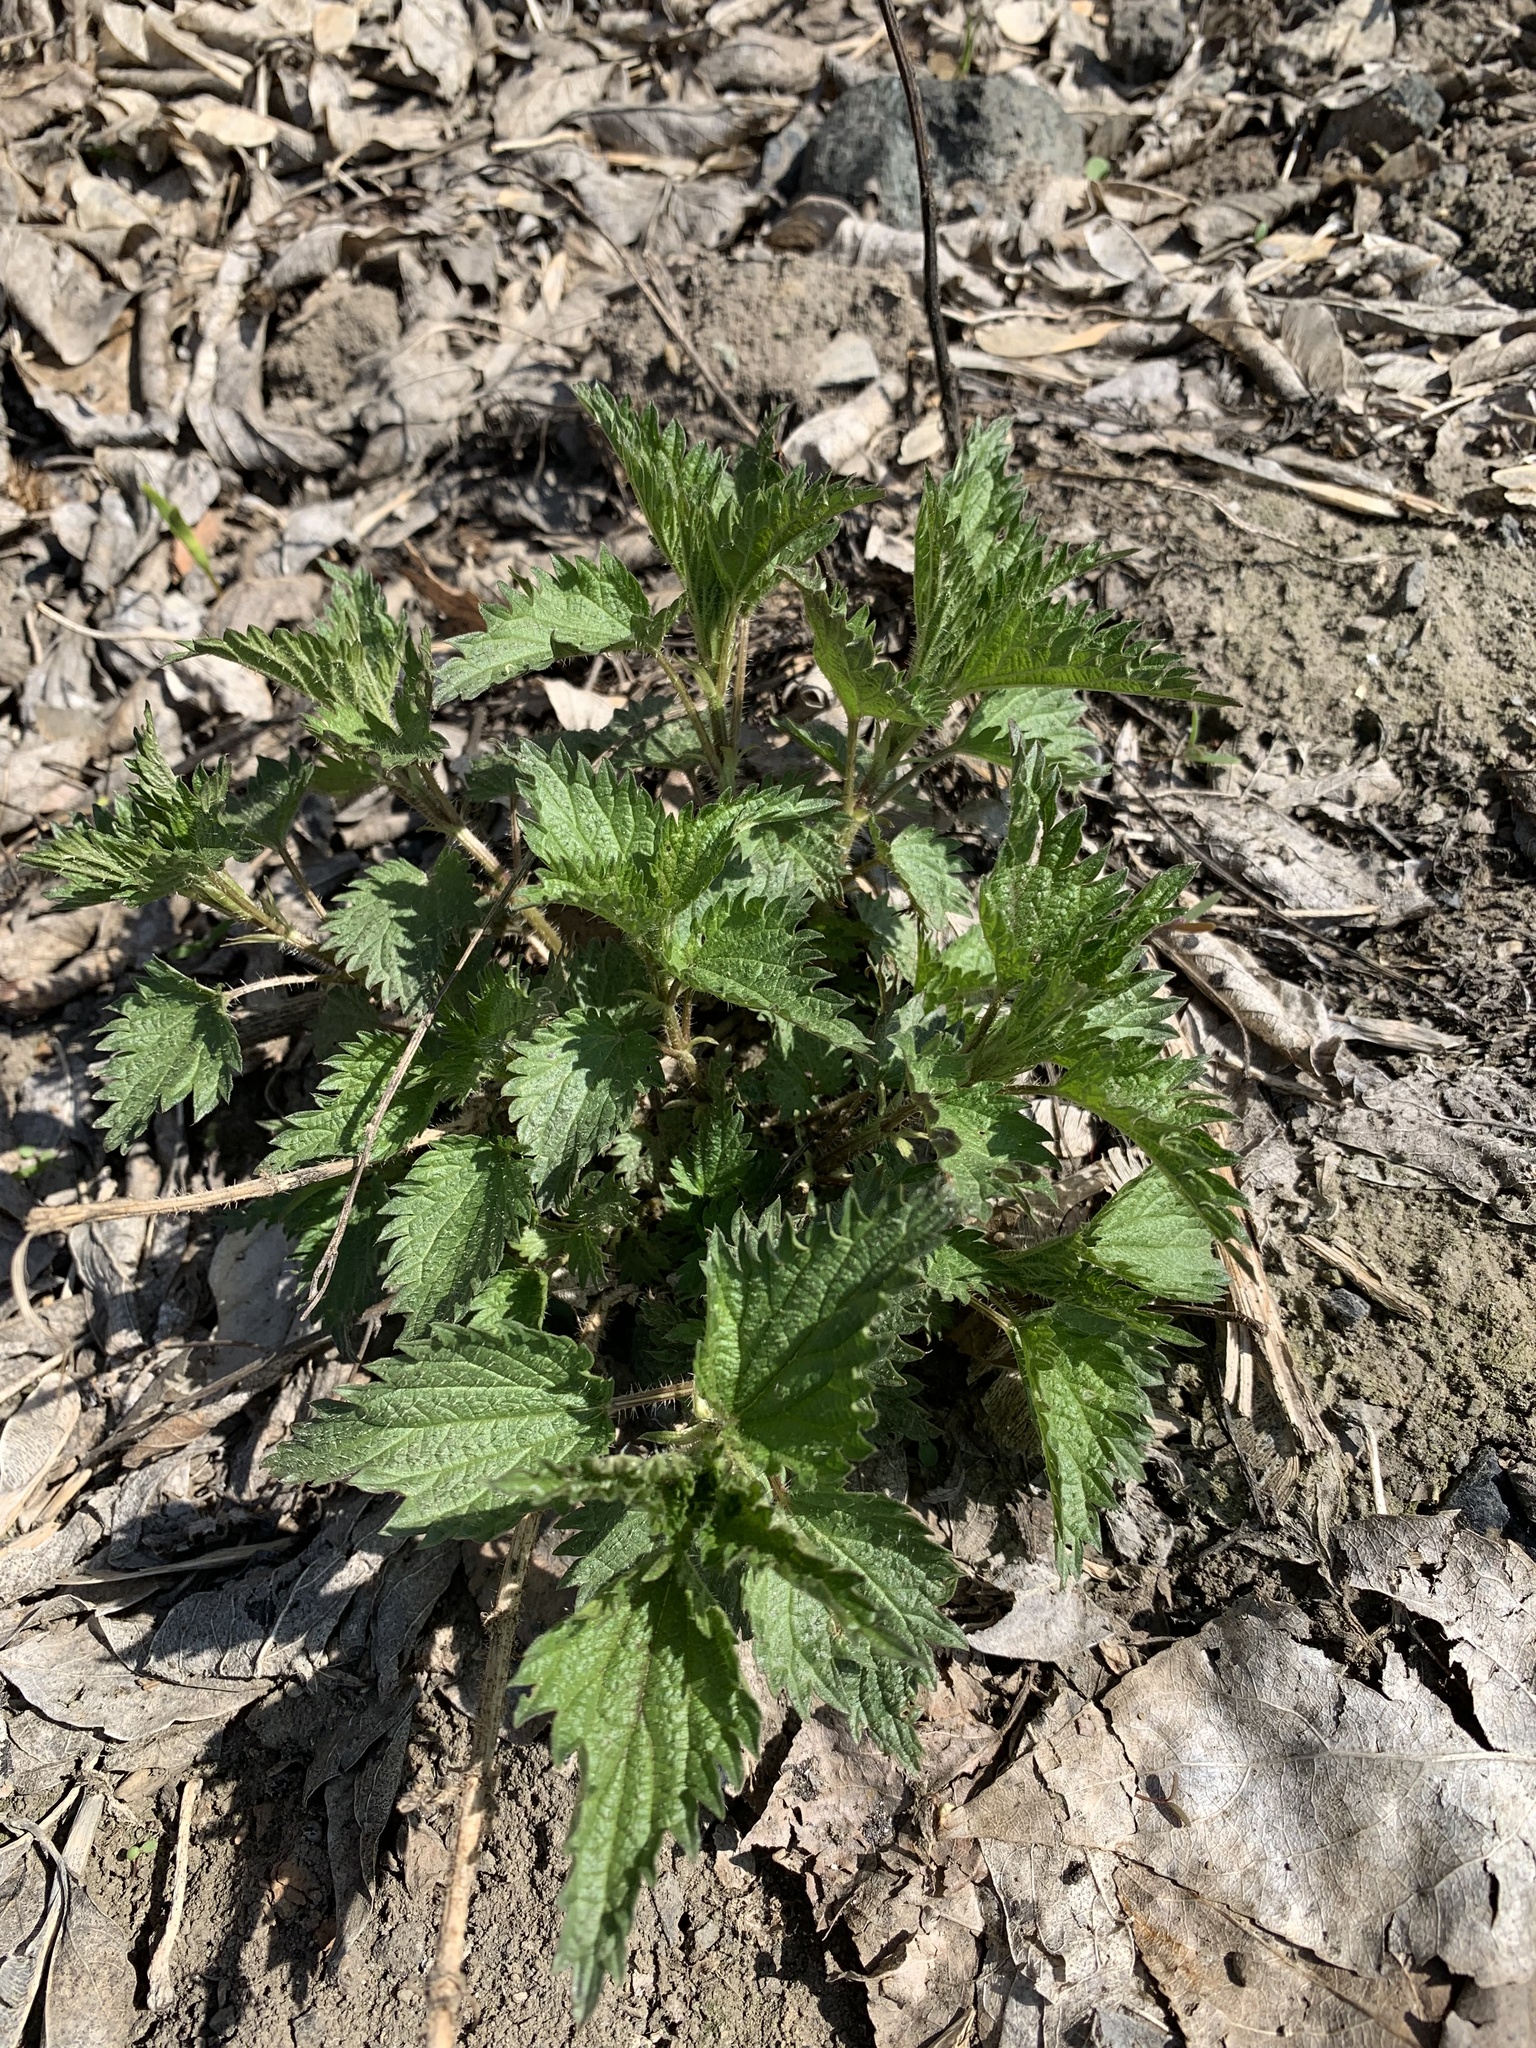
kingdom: Plantae
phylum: Tracheophyta
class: Magnoliopsida
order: Rosales
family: Urticaceae
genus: Urtica
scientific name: Urtica dioica
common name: Common nettle
